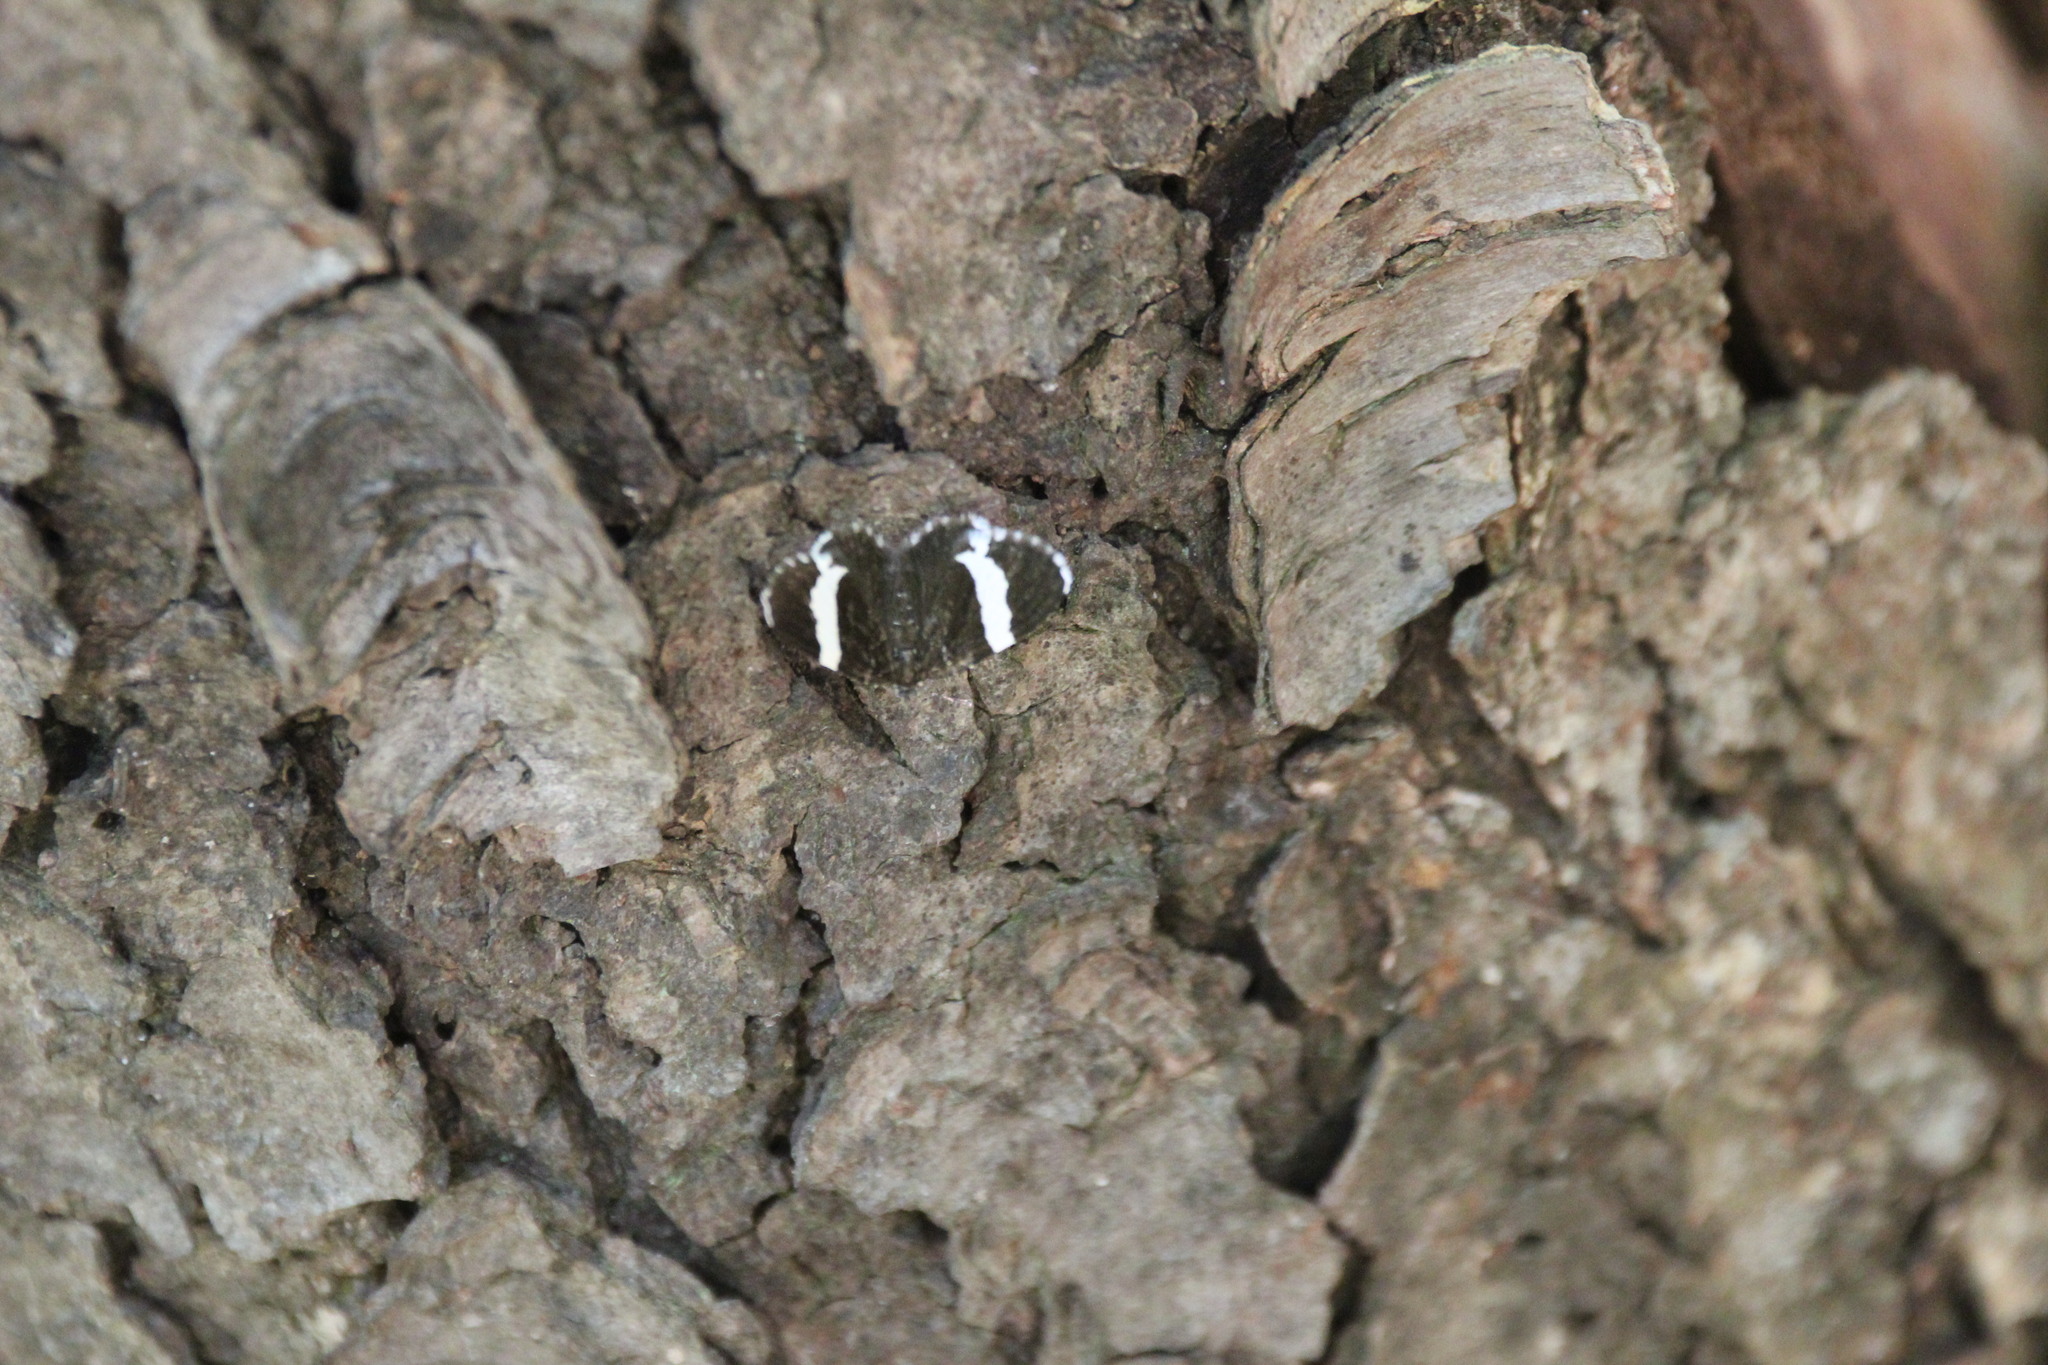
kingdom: Animalia
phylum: Arthropoda
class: Insecta
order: Lepidoptera
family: Geometridae
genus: Trichodezia
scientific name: Trichodezia albovittata
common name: White striped black
